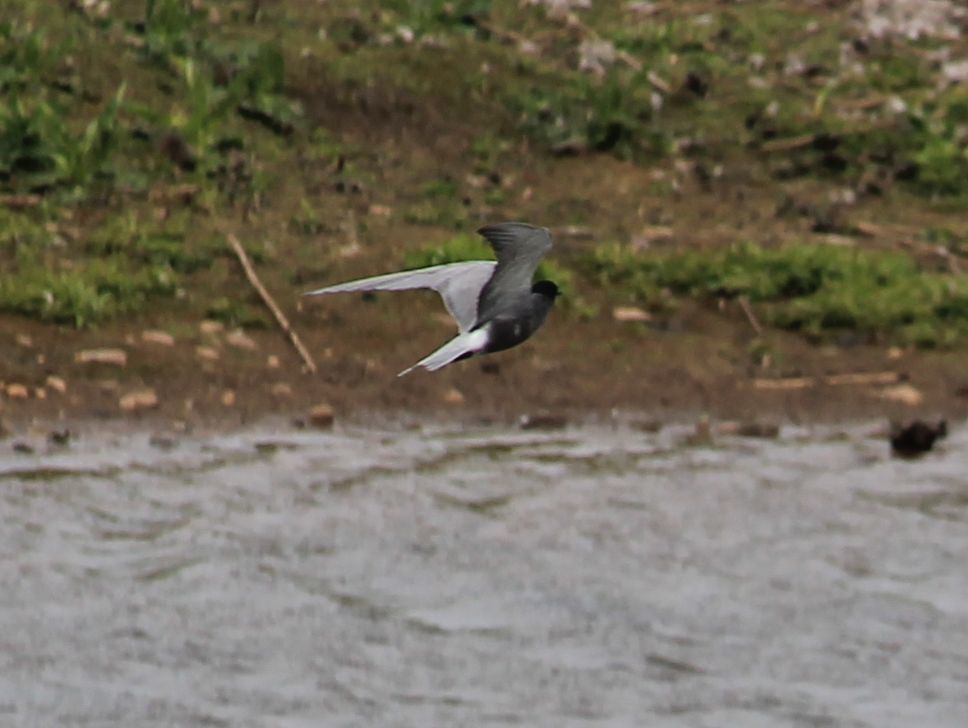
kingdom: Animalia
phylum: Chordata
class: Aves
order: Charadriiformes
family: Laridae
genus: Chlidonias
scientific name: Chlidonias niger
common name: Black tern
